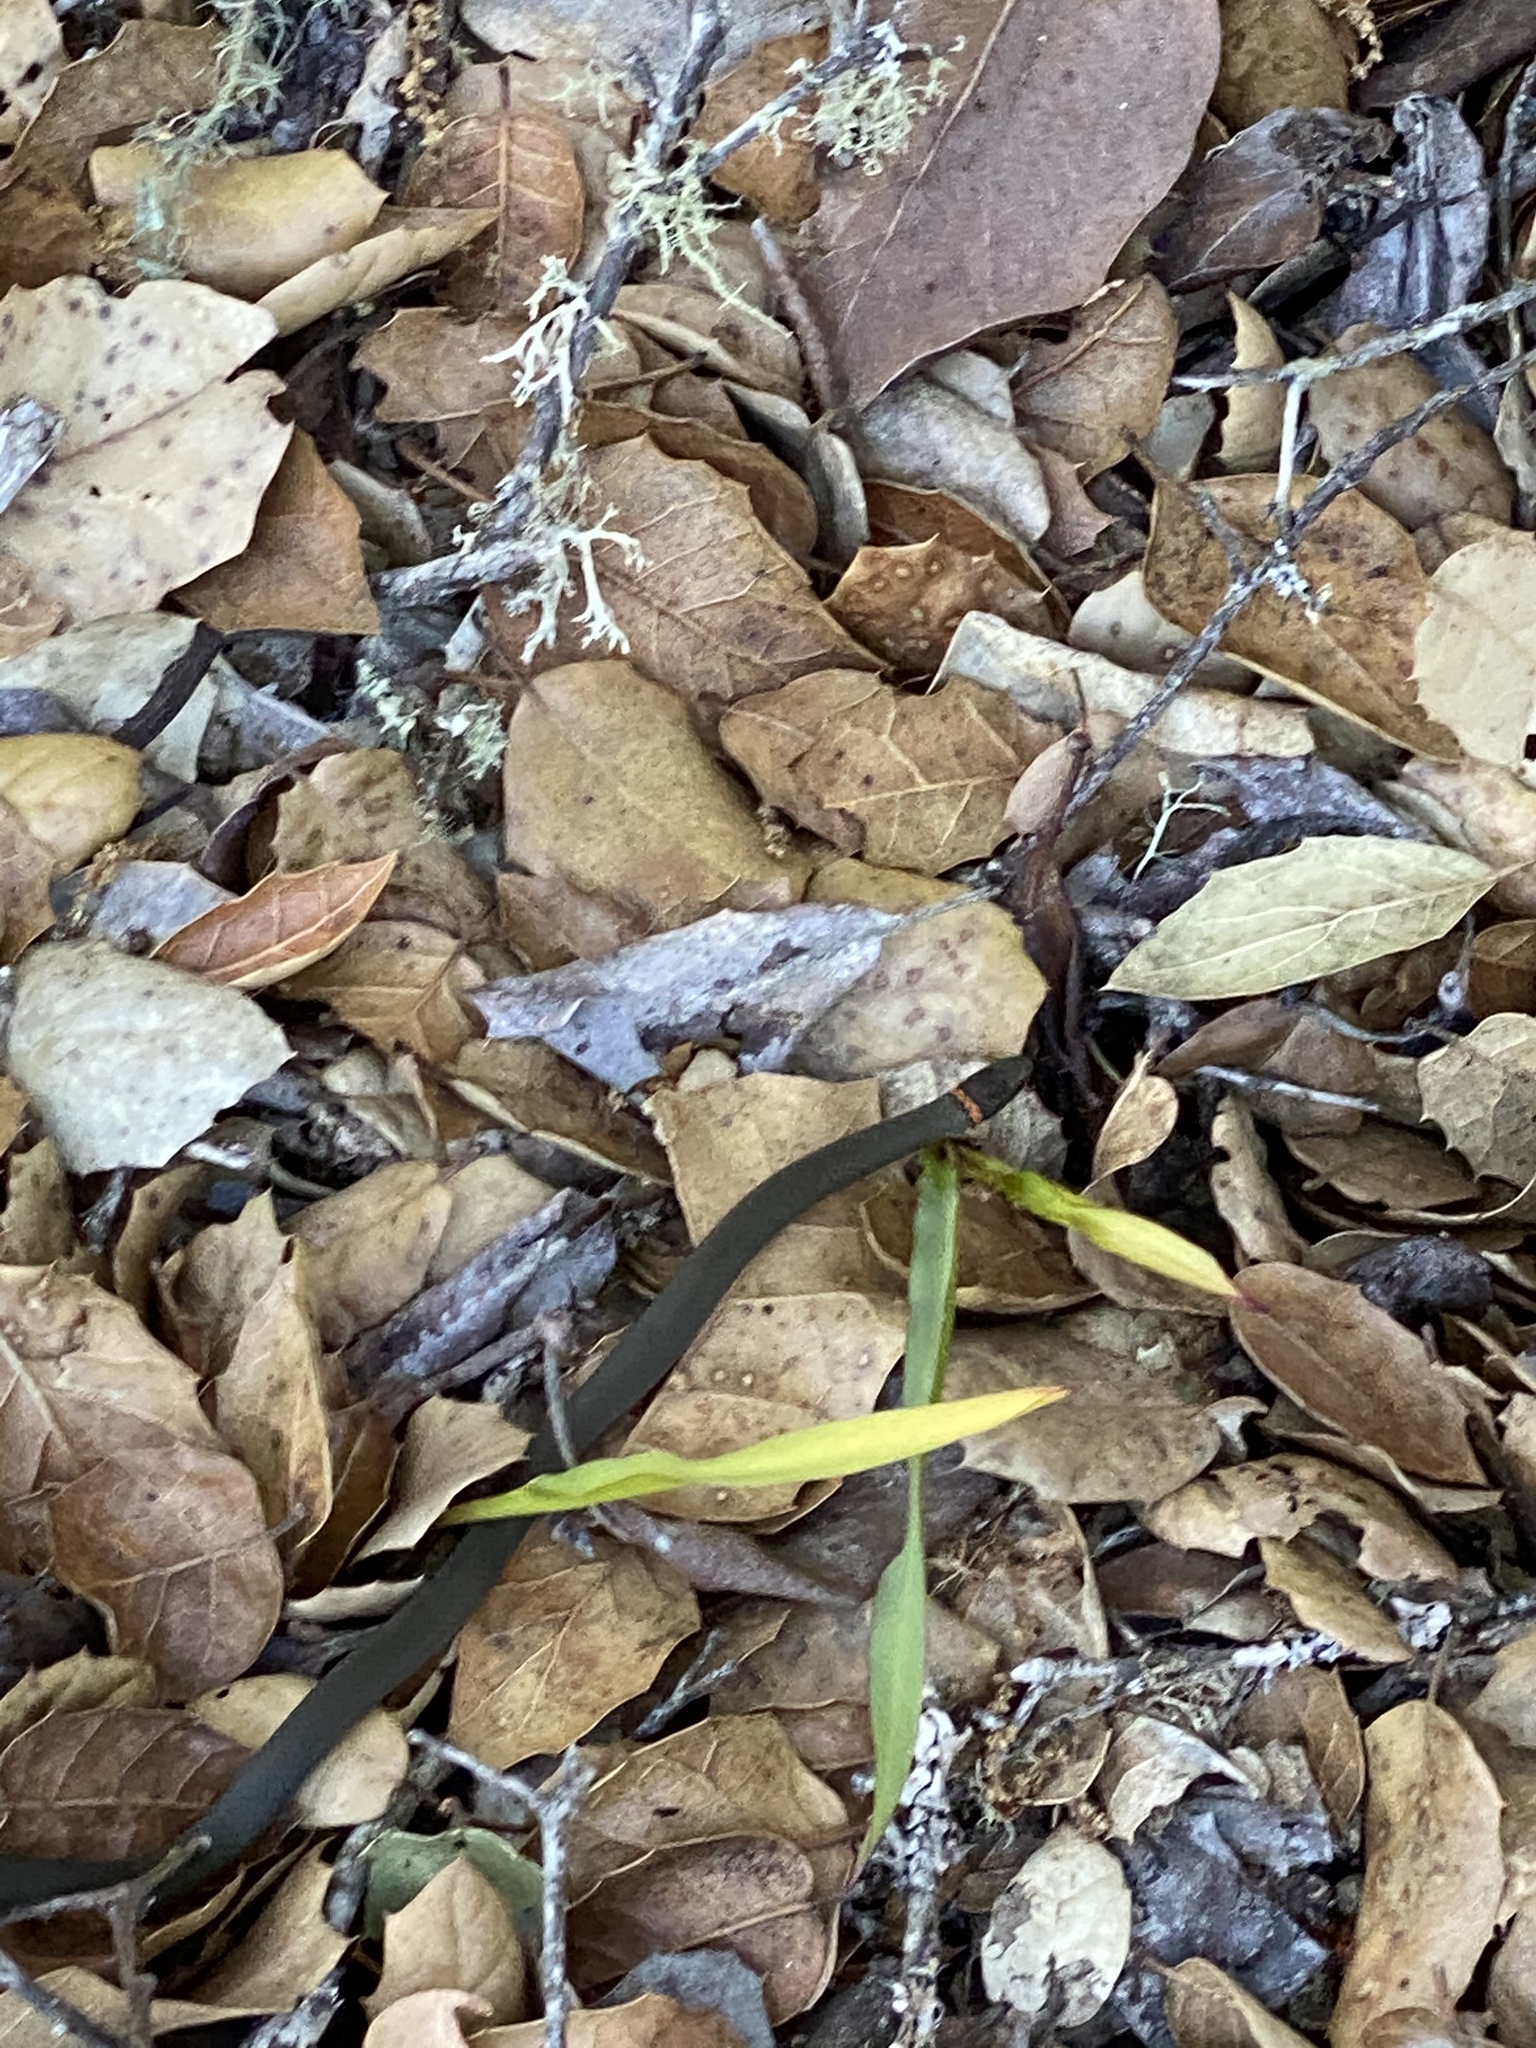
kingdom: Animalia
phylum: Chordata
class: Squamata
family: Colubridae
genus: Diadophis
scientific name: Diadophis punctatus
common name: Ringneck snake
